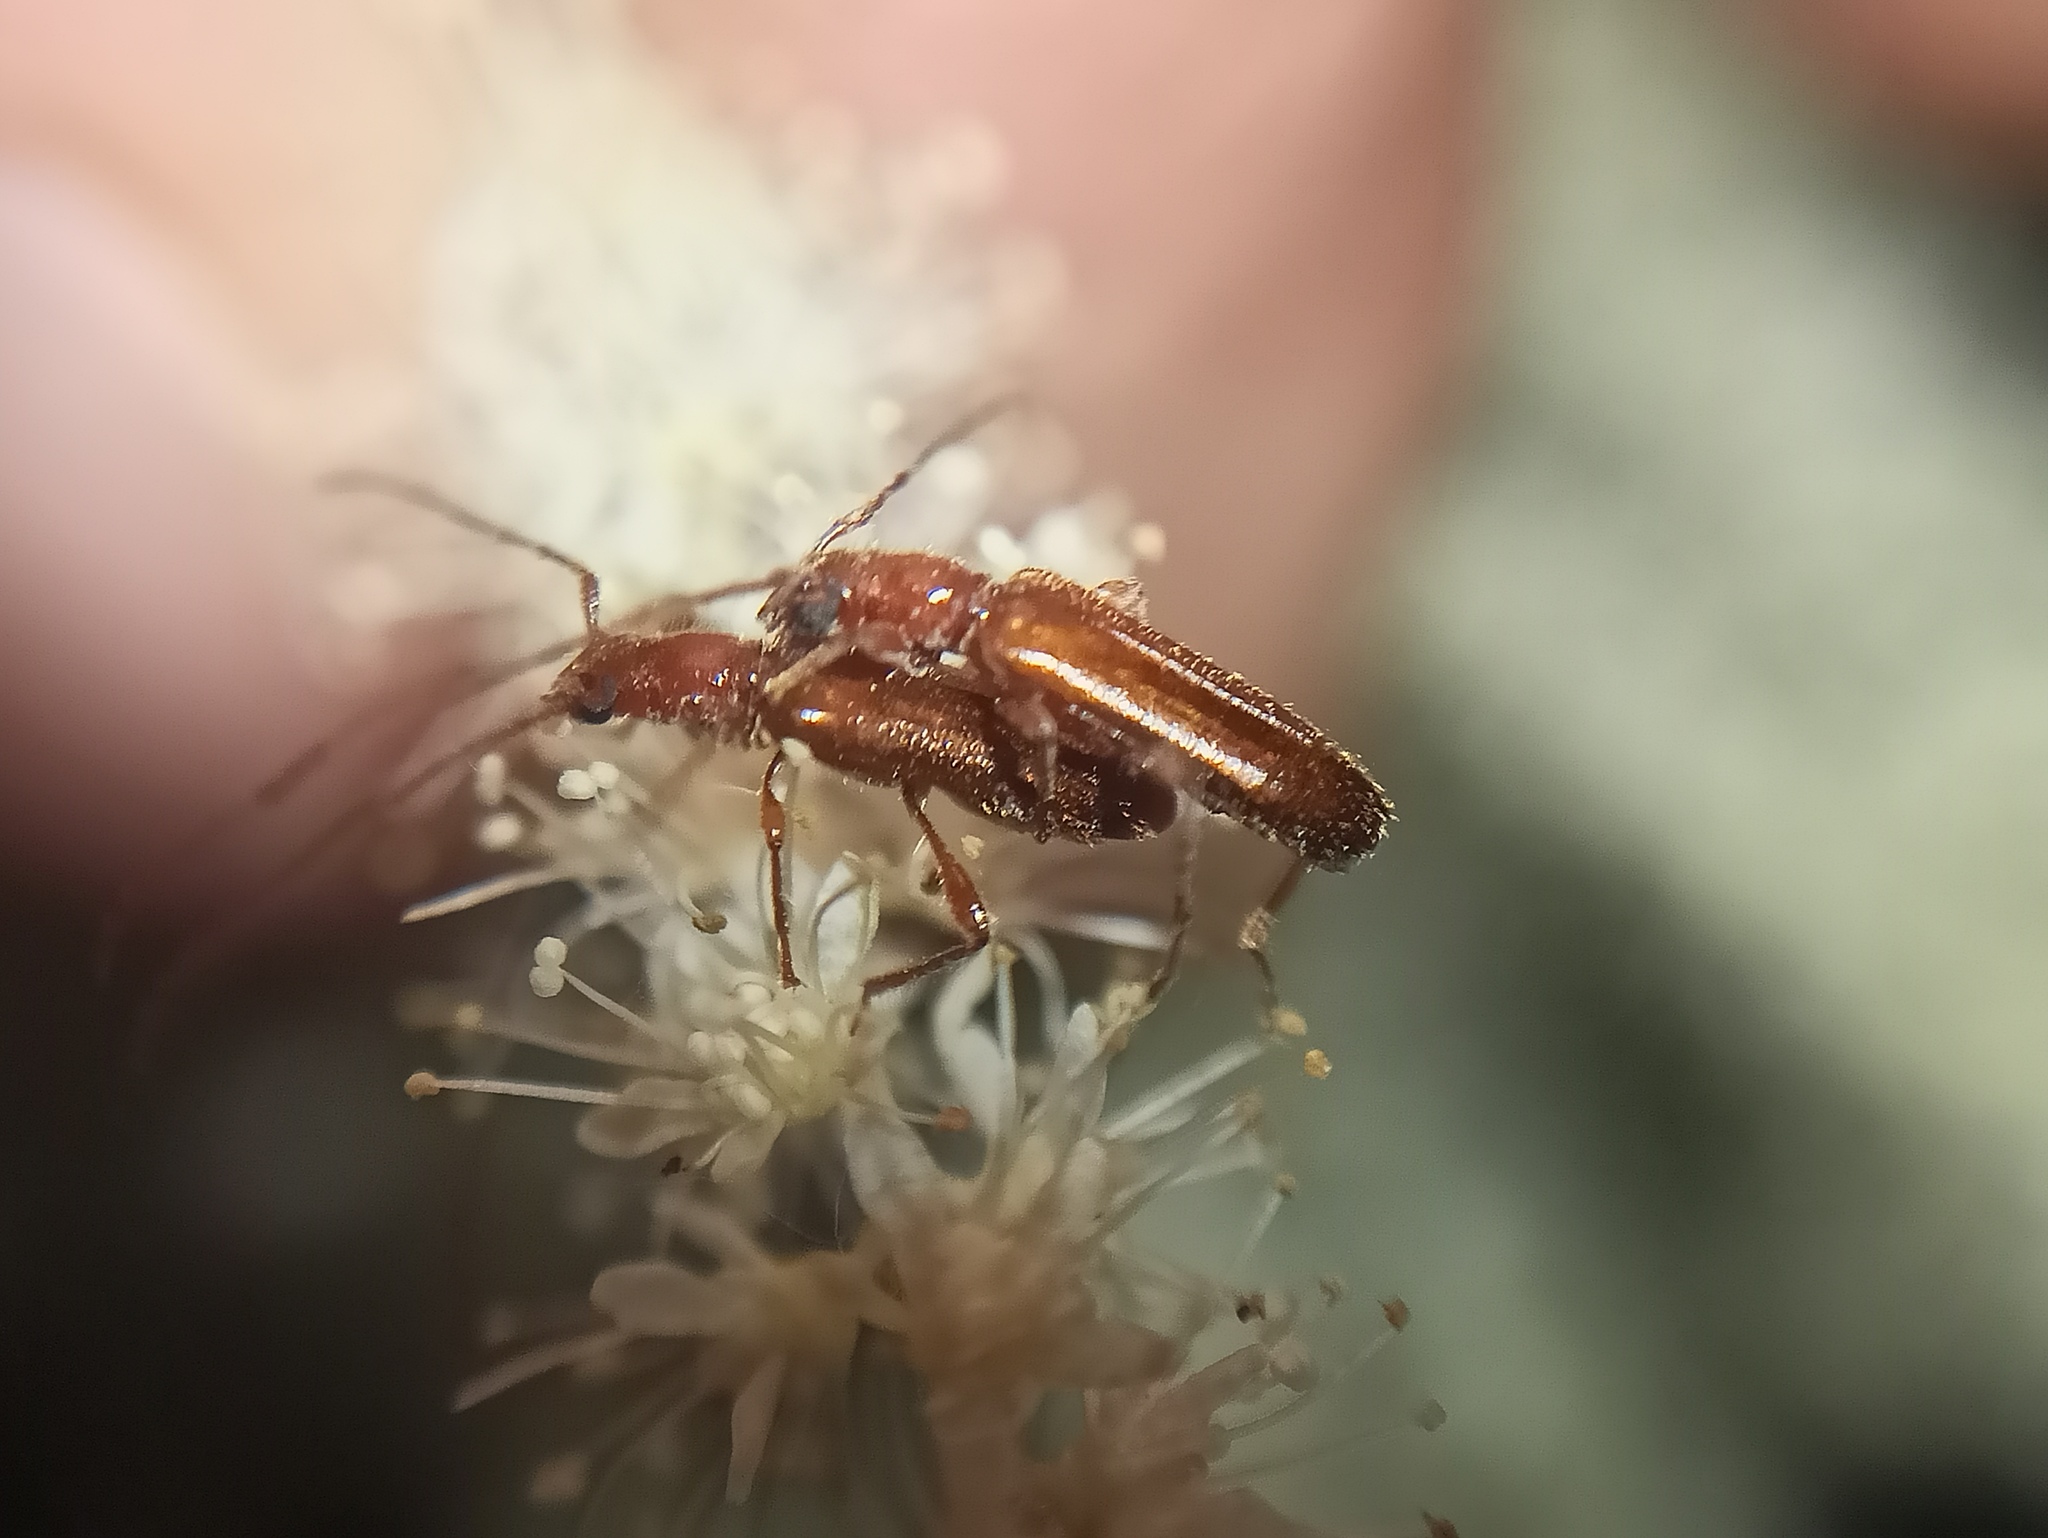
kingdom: Animalia
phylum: Arthropoda
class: Insecta
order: Coleoptera
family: Cerambycidae
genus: Obrium
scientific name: Obrium brunneum
